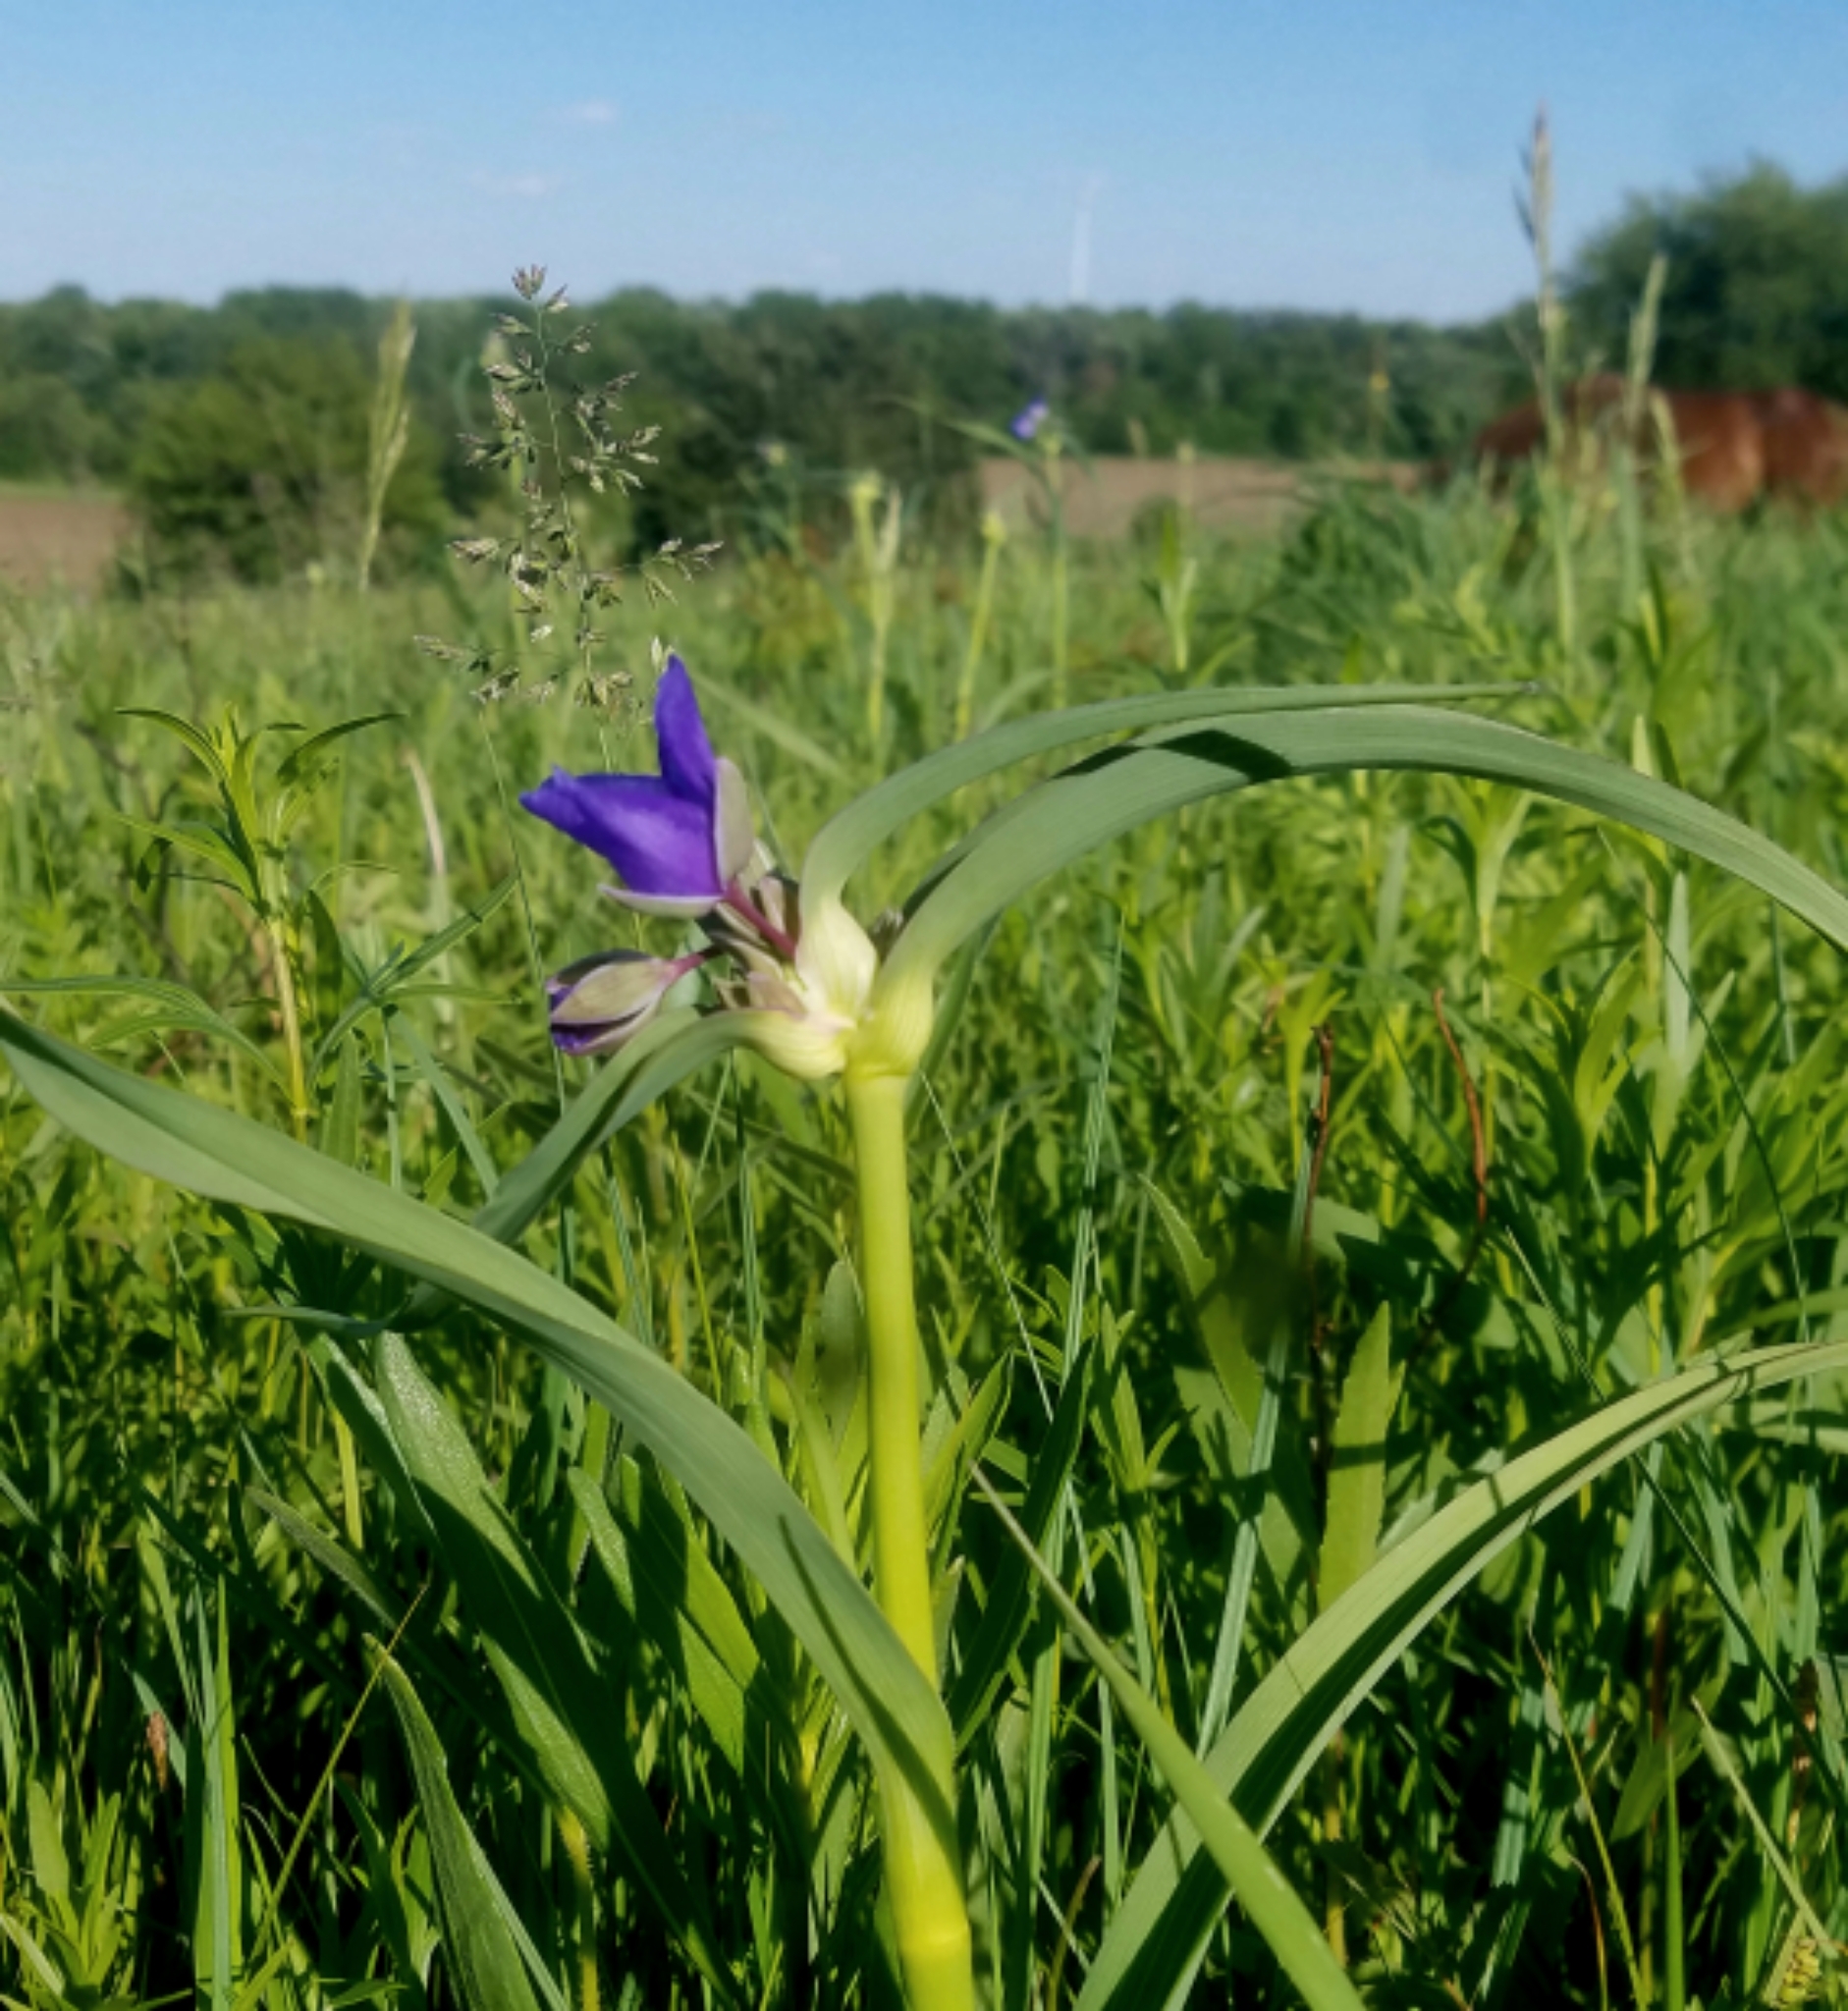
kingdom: Plantae
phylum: Tracheophyta
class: Liliopsida
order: Commelinales
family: Commelinaceae
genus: Tradescantia
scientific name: Tradescantia ohiensis
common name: Ohio spiderwort
